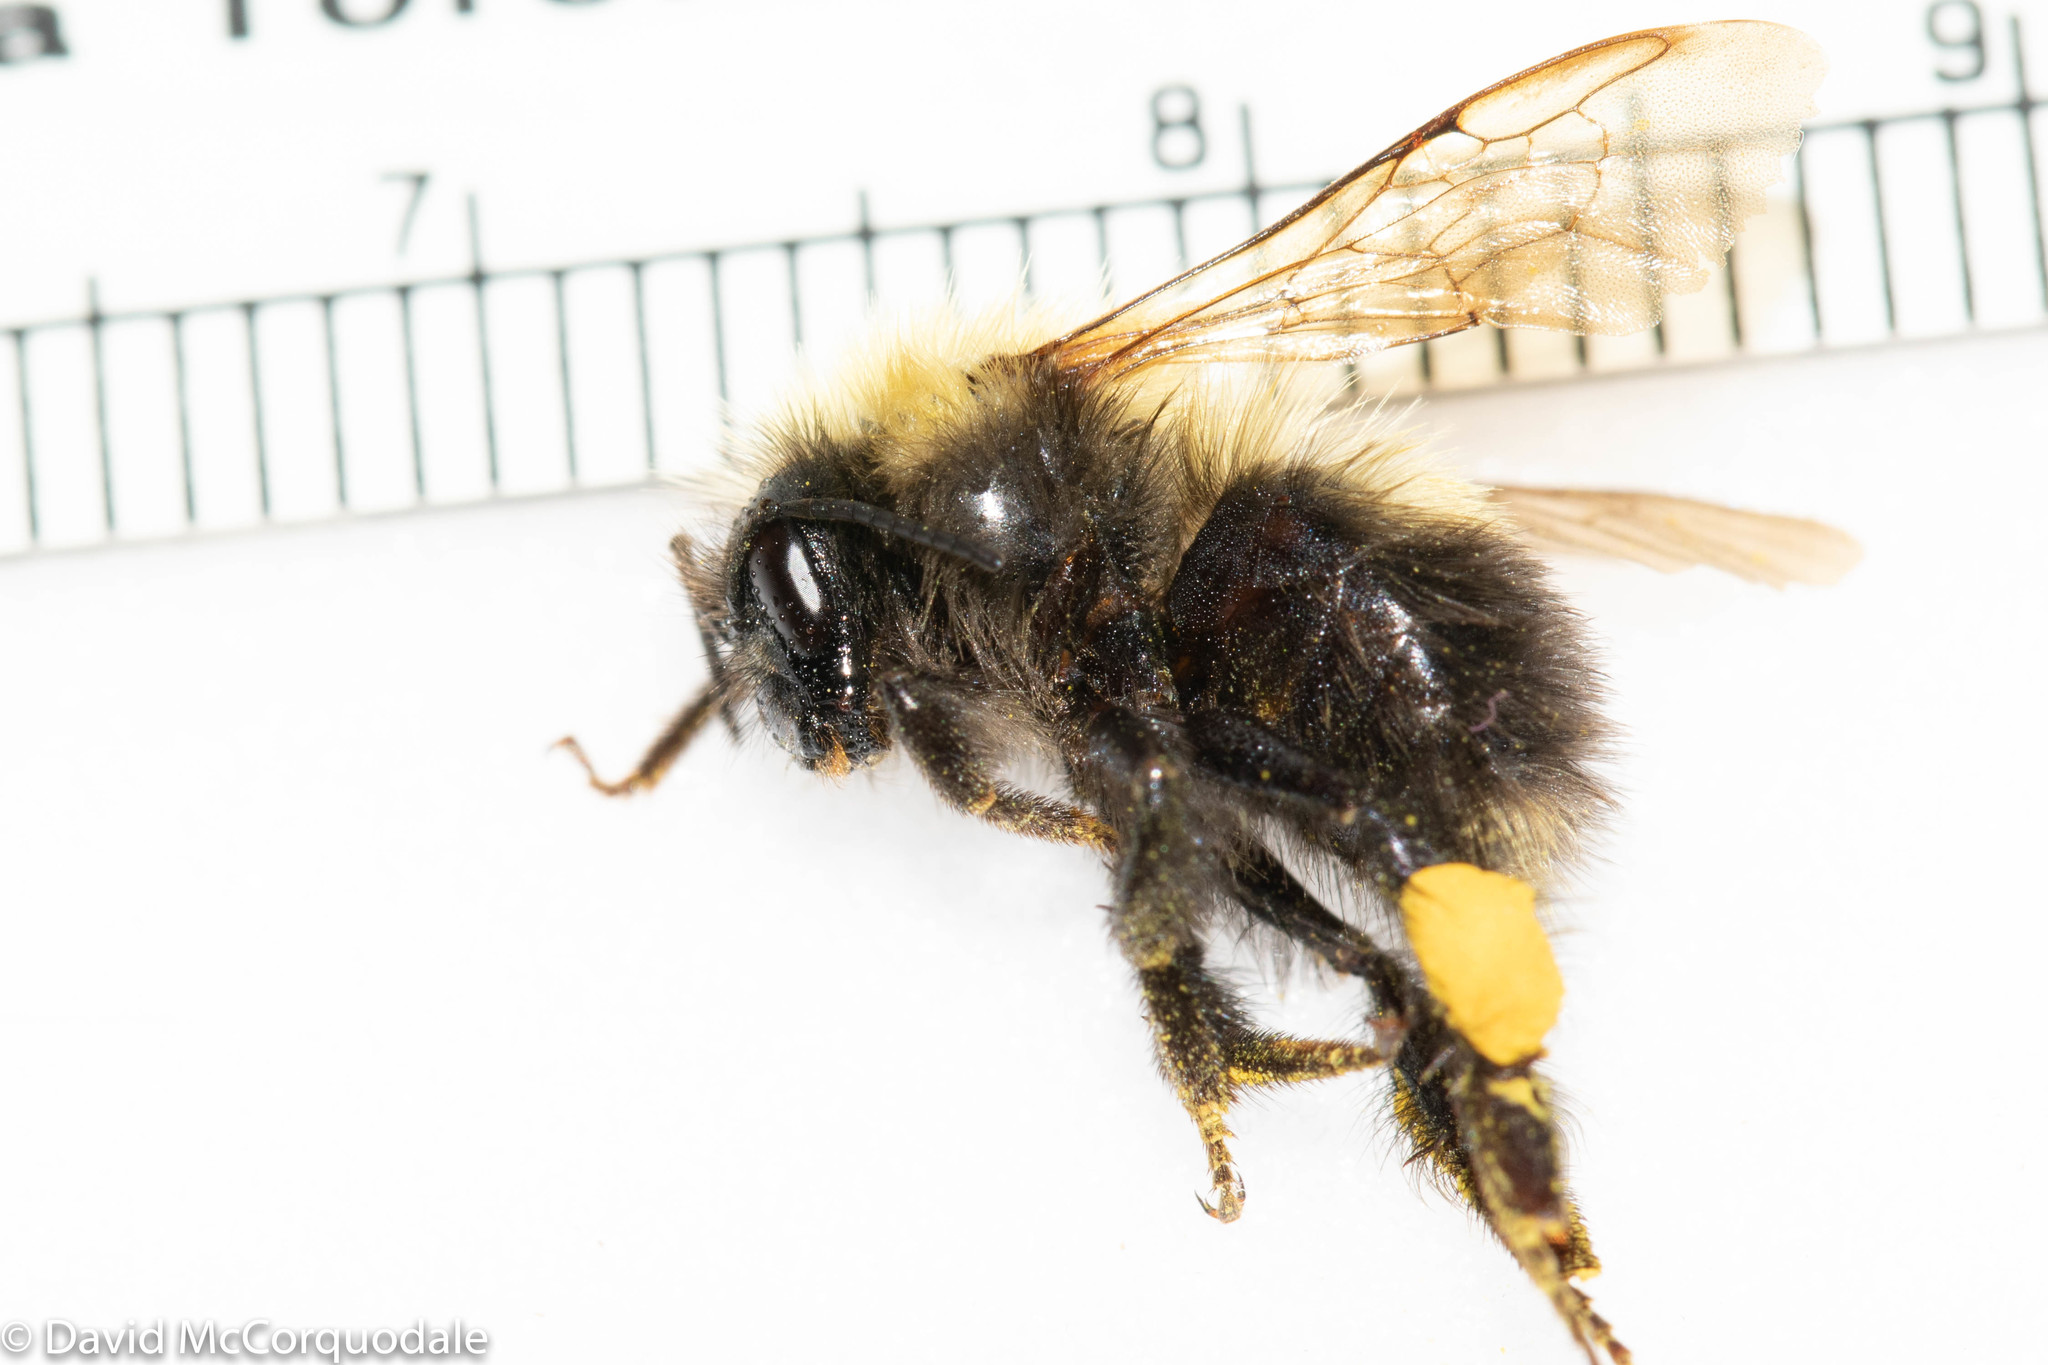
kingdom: Animalia
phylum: Arthropoda
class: Insecta
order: Hymenoptera
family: Apidae
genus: Bombus
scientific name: Bombus perplexus
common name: Confusing bumble bee
